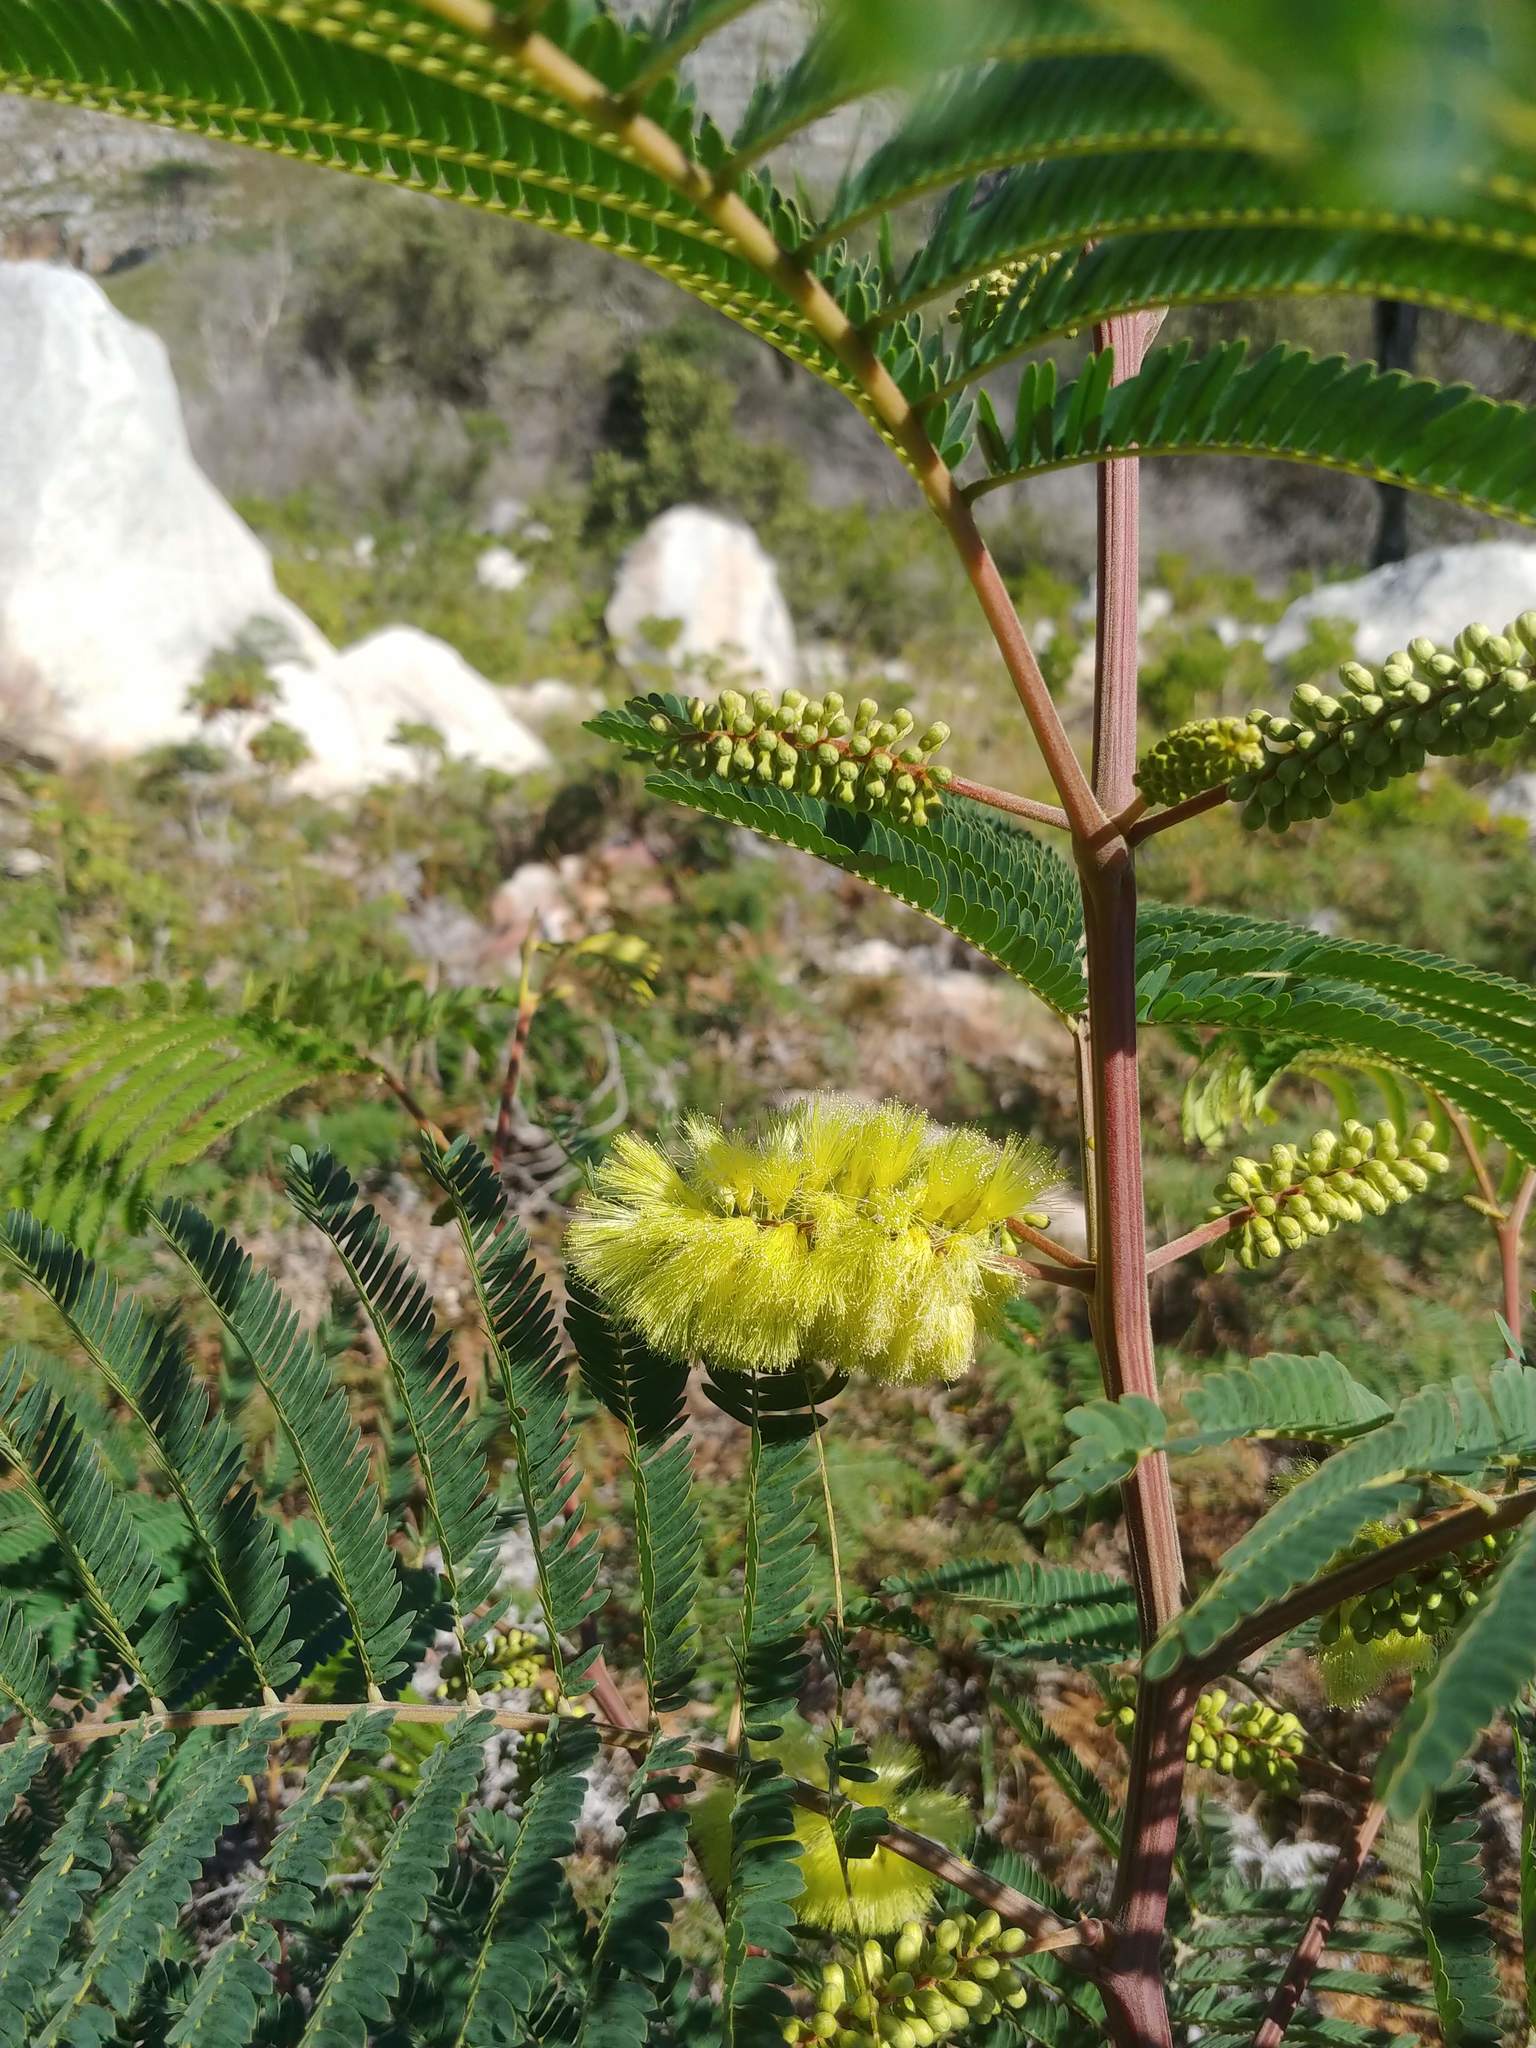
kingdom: Plantae
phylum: Tracheophyta
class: Magnoliopsida
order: Fabales
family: Fabaceae
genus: Paraserianthes
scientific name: Paraserianthes lophantha
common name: Plume albizia
